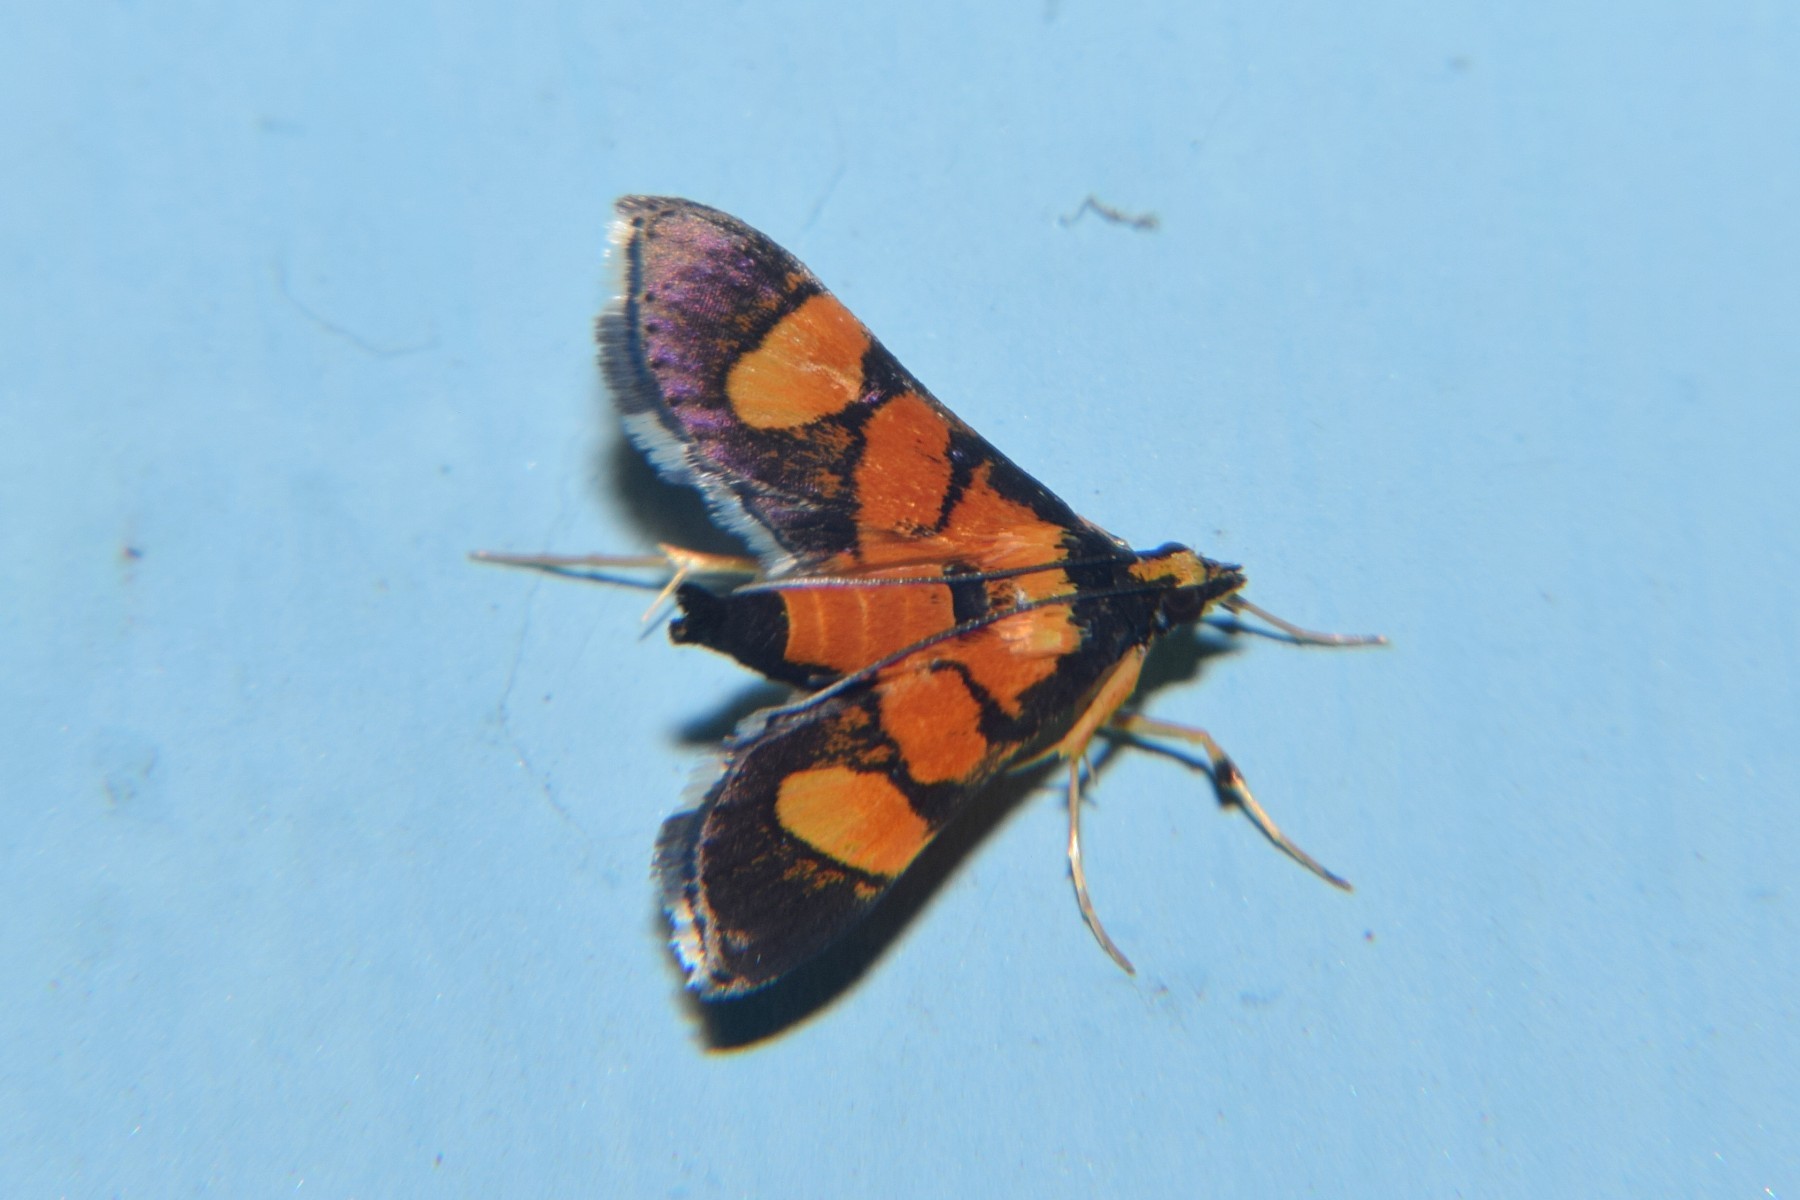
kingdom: Animalia
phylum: Arthropoda
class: Insecta
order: Lepidoptera
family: Crambidae
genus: Aethaloessa
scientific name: Aethaloessa calidalis
